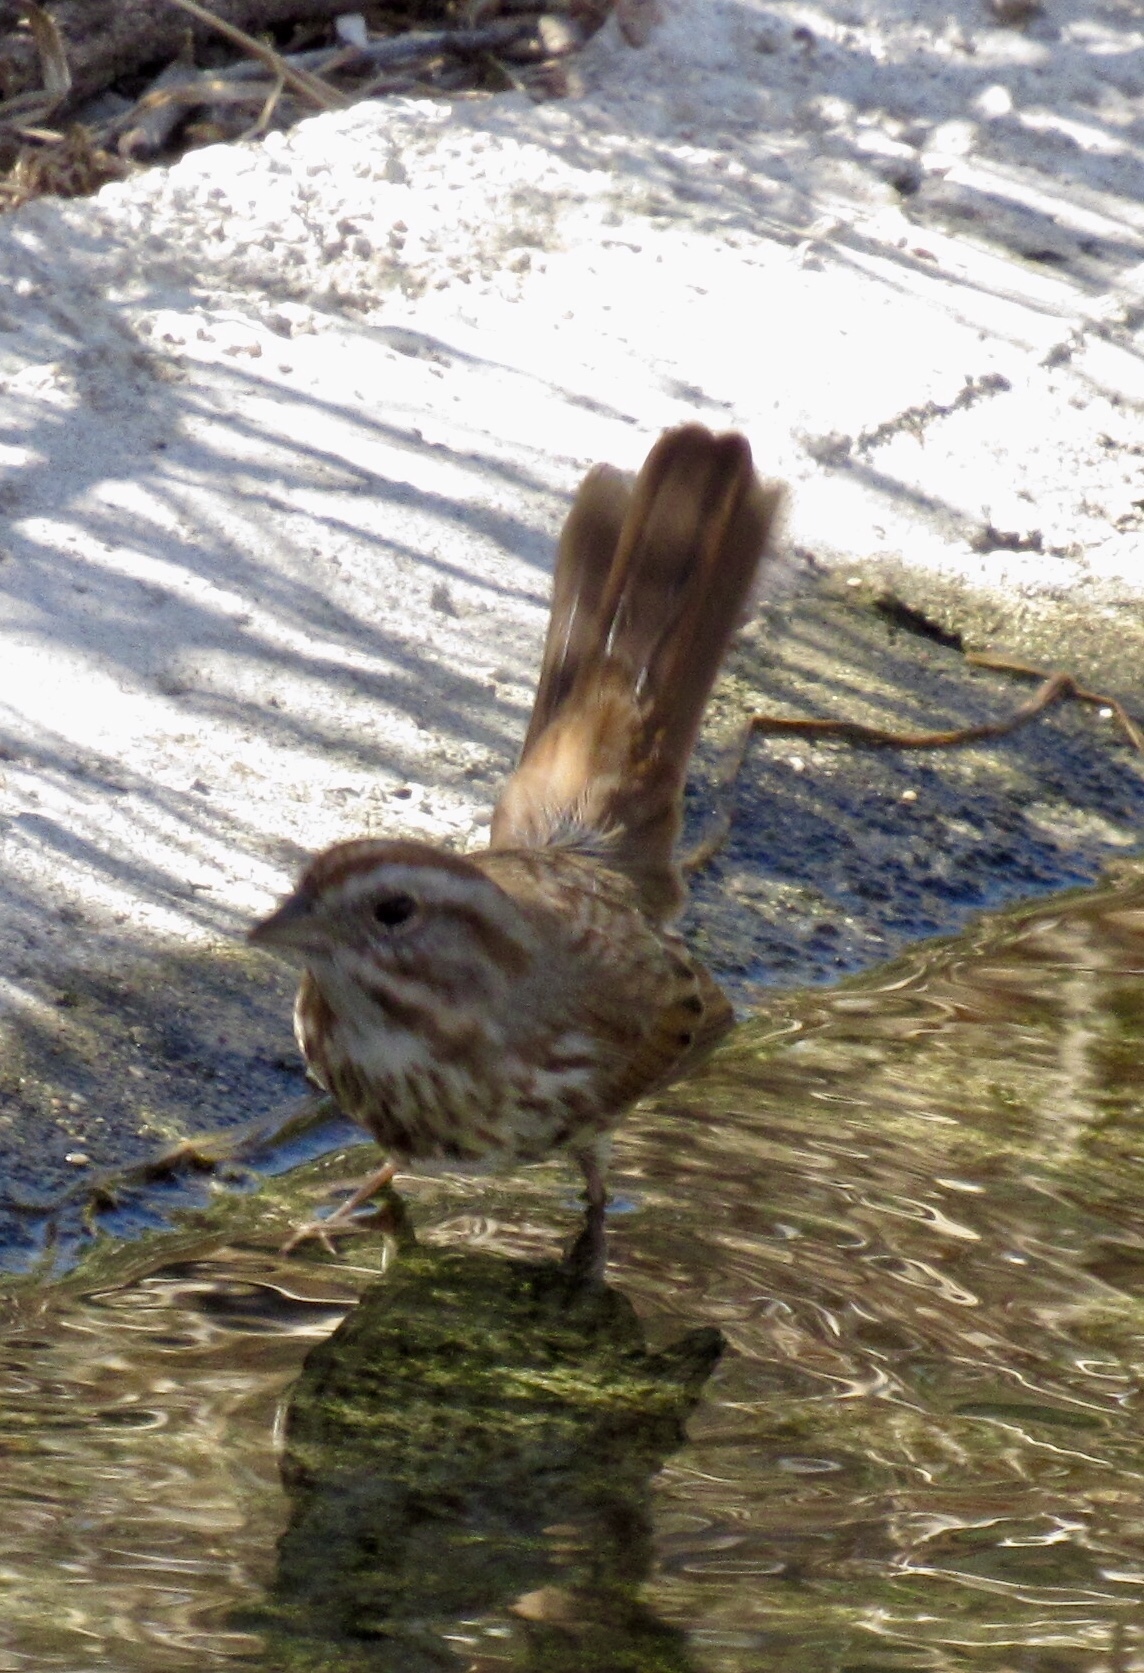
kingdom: Animalia
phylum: Chordata
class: Aves
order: Passeriformes
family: Passerellidae
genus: Melospiza
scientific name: Melospiza melodia
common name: Song sparrow
